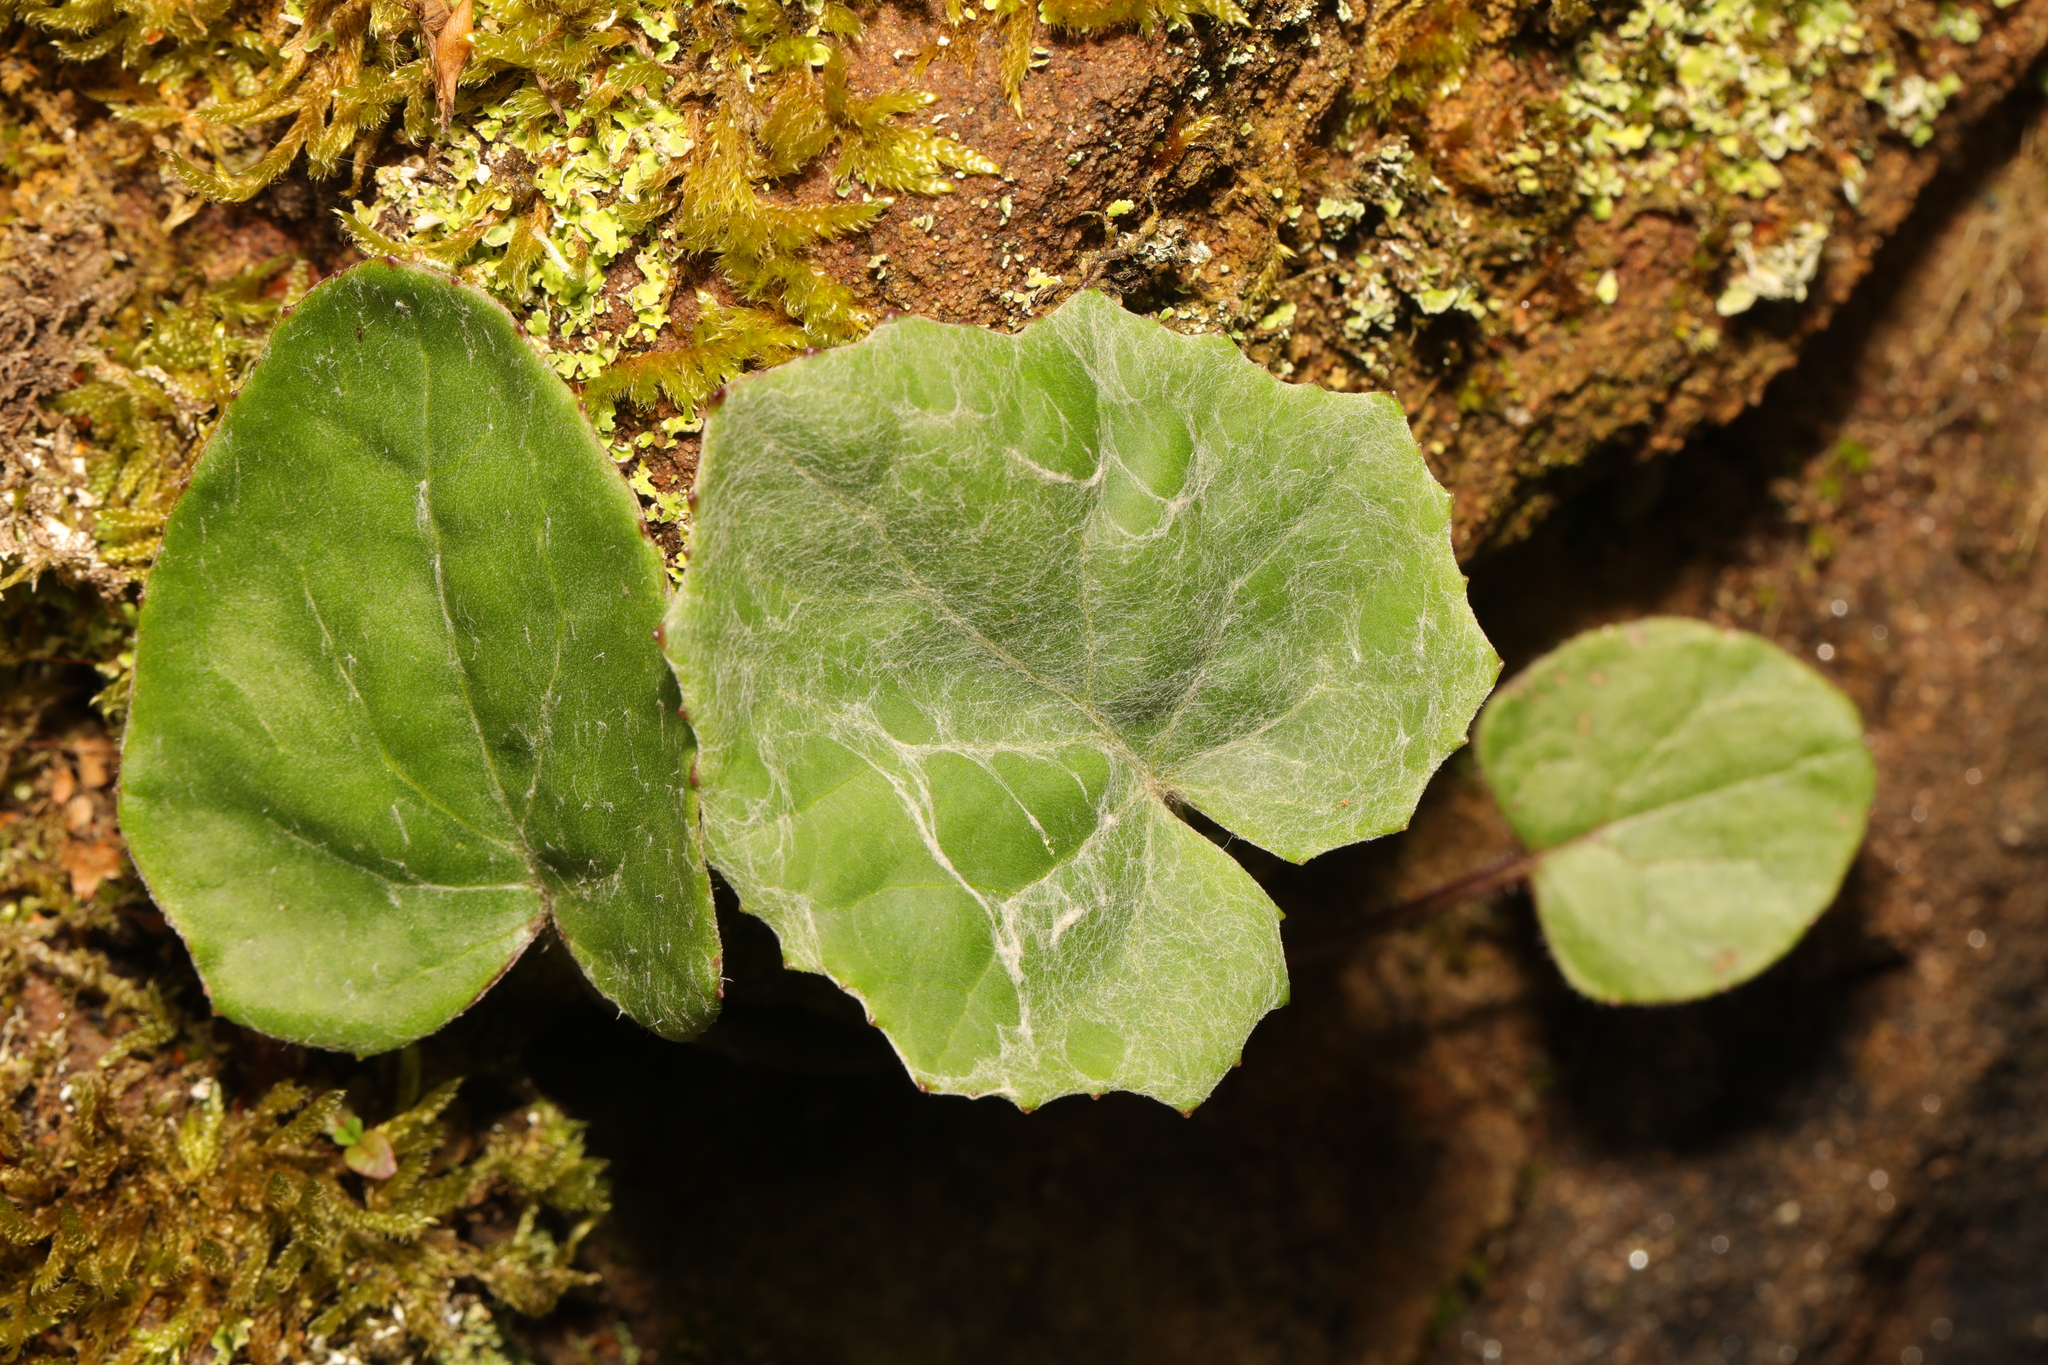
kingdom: Plantae
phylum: Tracheophyta
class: Magnoliopsida
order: Asterales
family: Asteraceae
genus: Tussilago
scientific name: Tussilago farfara
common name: Coltsfoot
